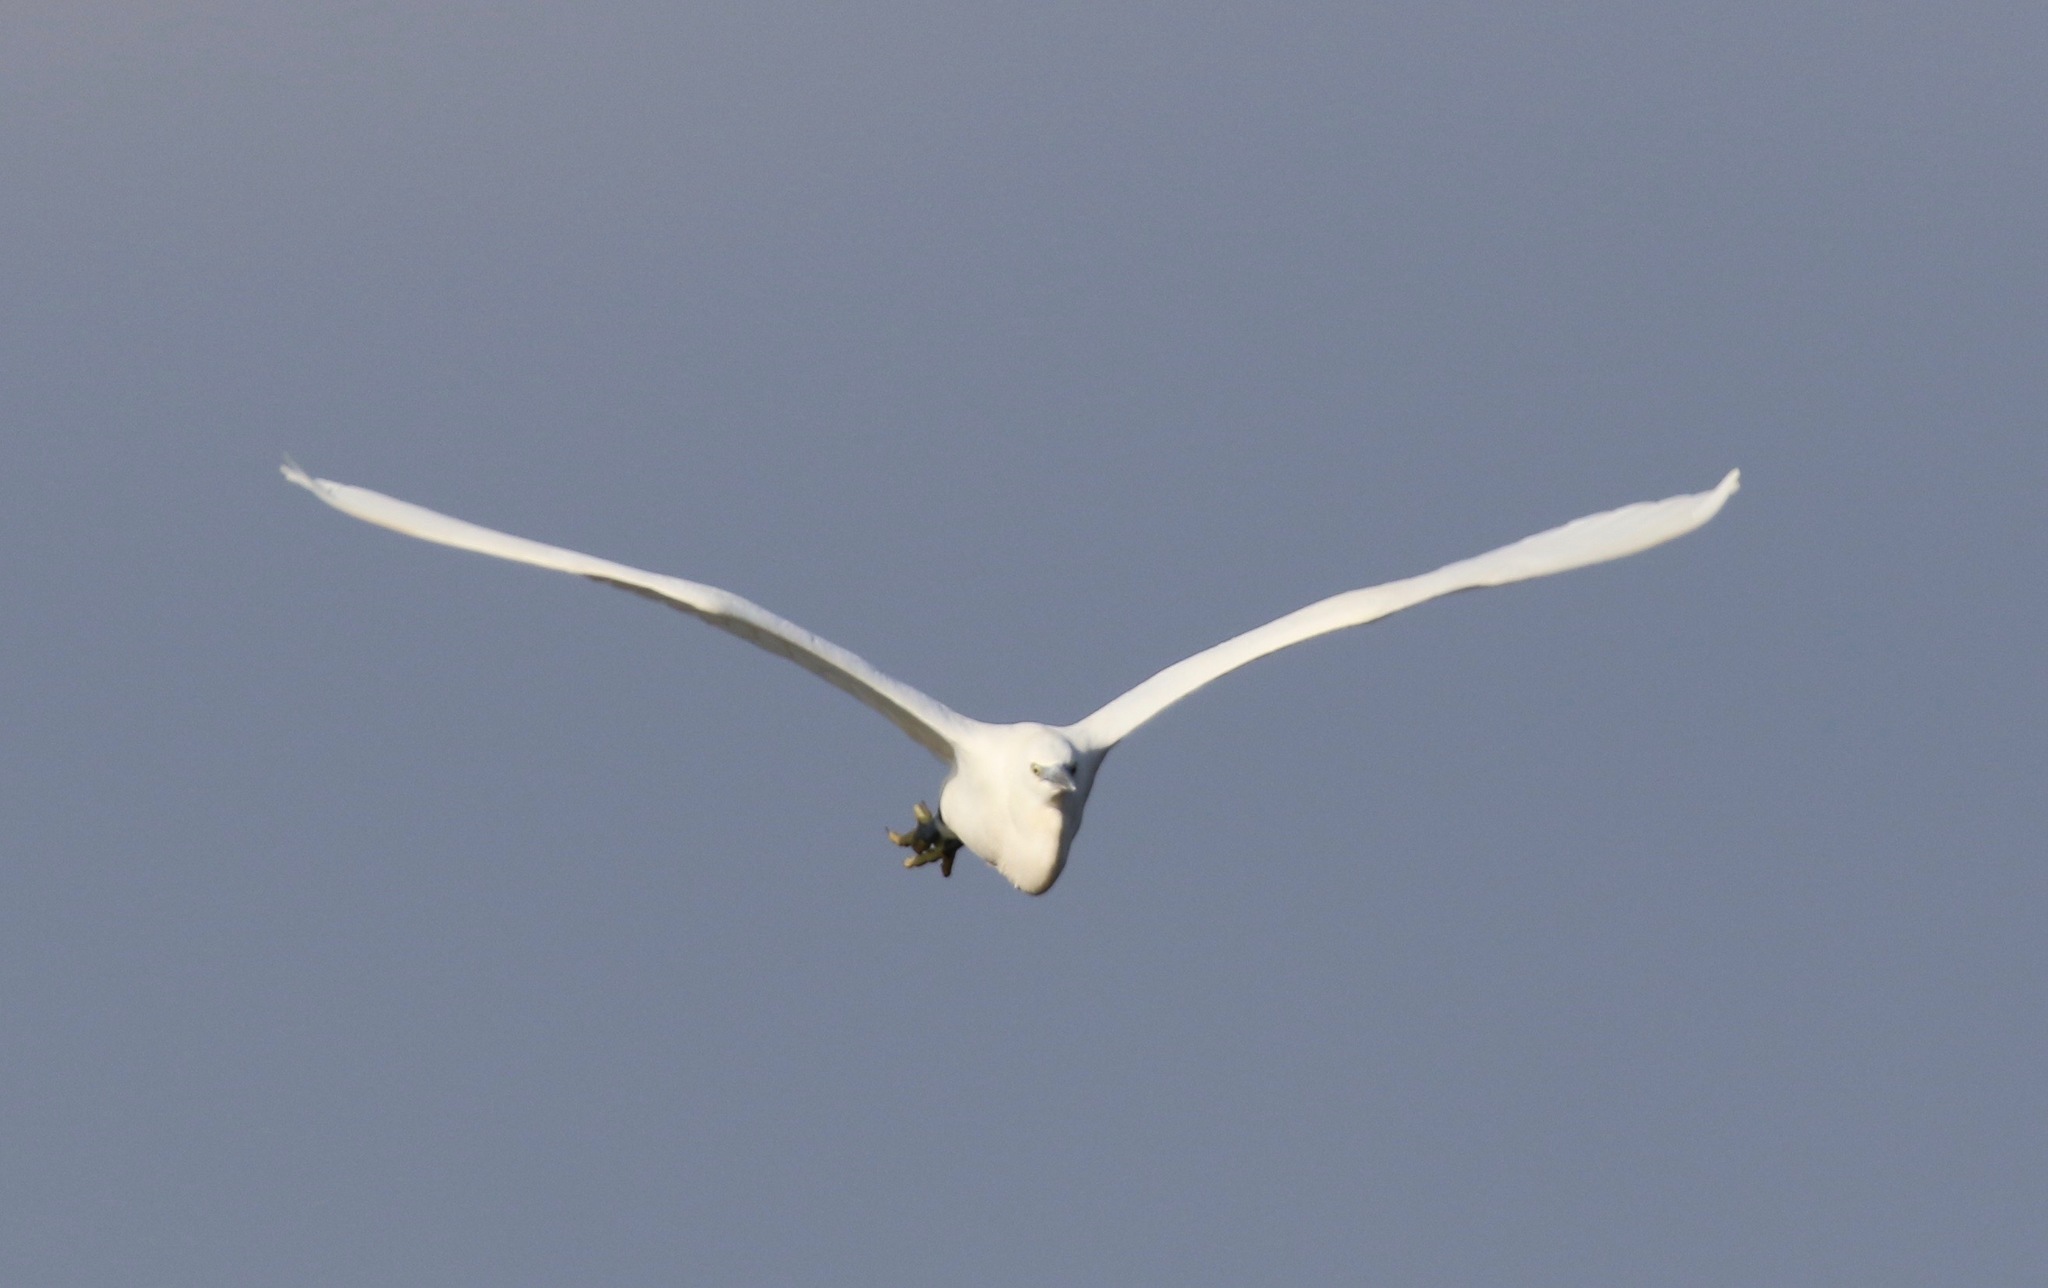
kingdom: Animalia
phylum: Chordata
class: Aves
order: Pelecaniformes
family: Ardeidae
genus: Egretta
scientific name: Egretta garzetta
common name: Little egret
